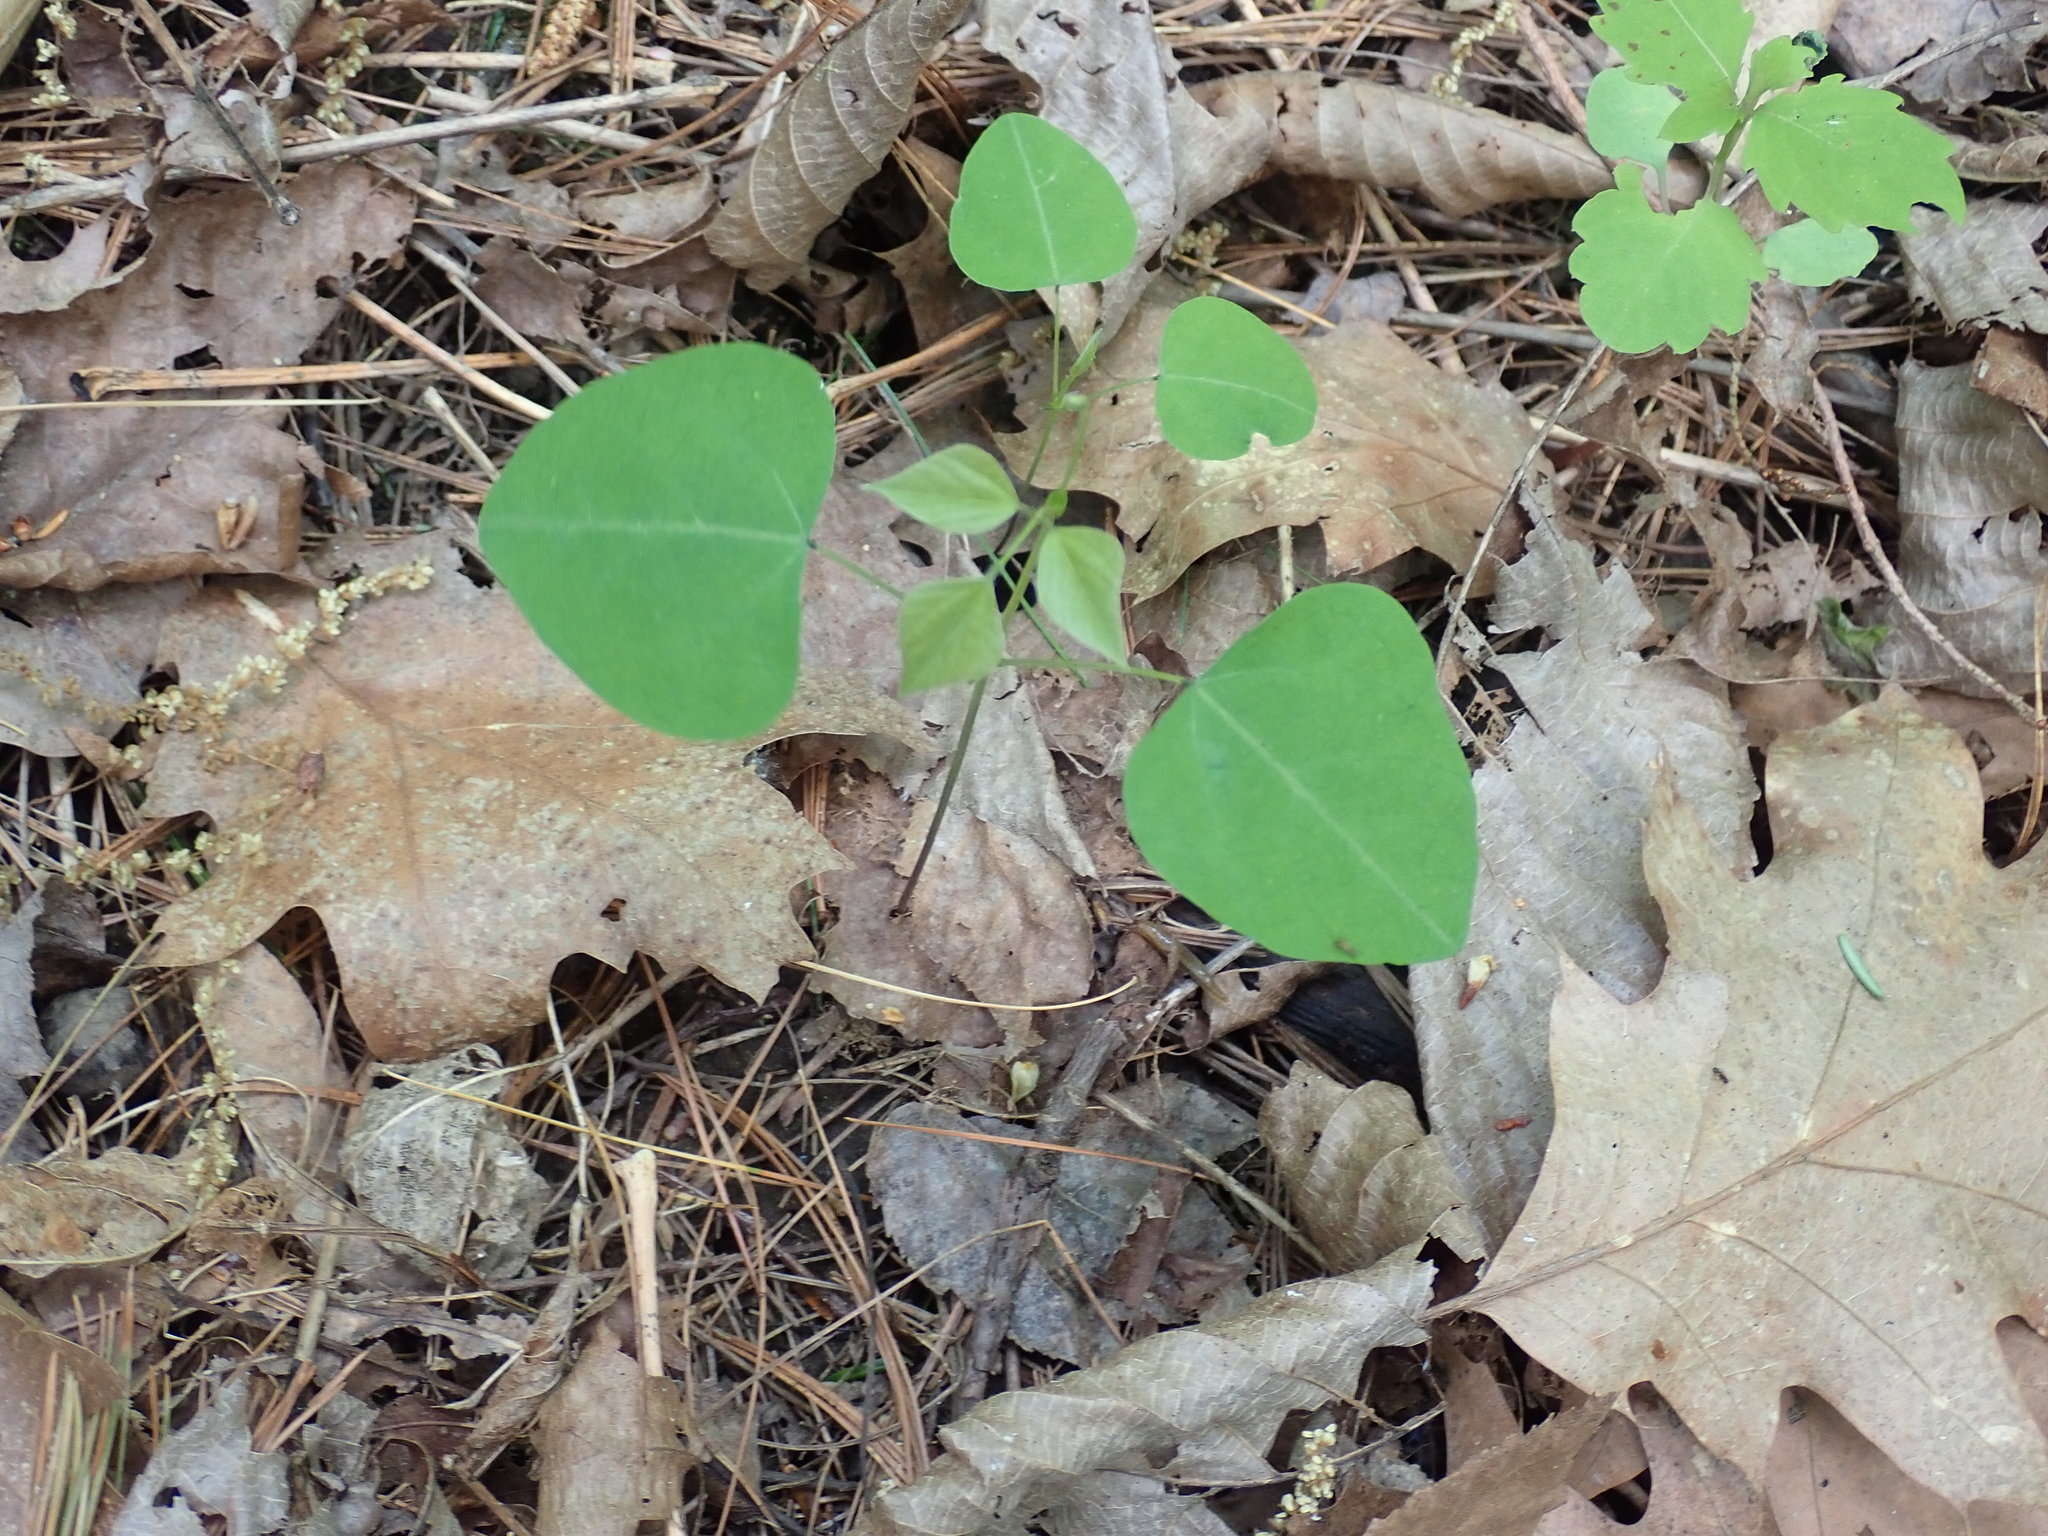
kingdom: Plantae
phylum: Tracheophyta
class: Magnoliopsida
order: Fabales
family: Fabaceae
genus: Amphicarpaea
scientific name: Amphicarpaea bracteata
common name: American hog peanut
